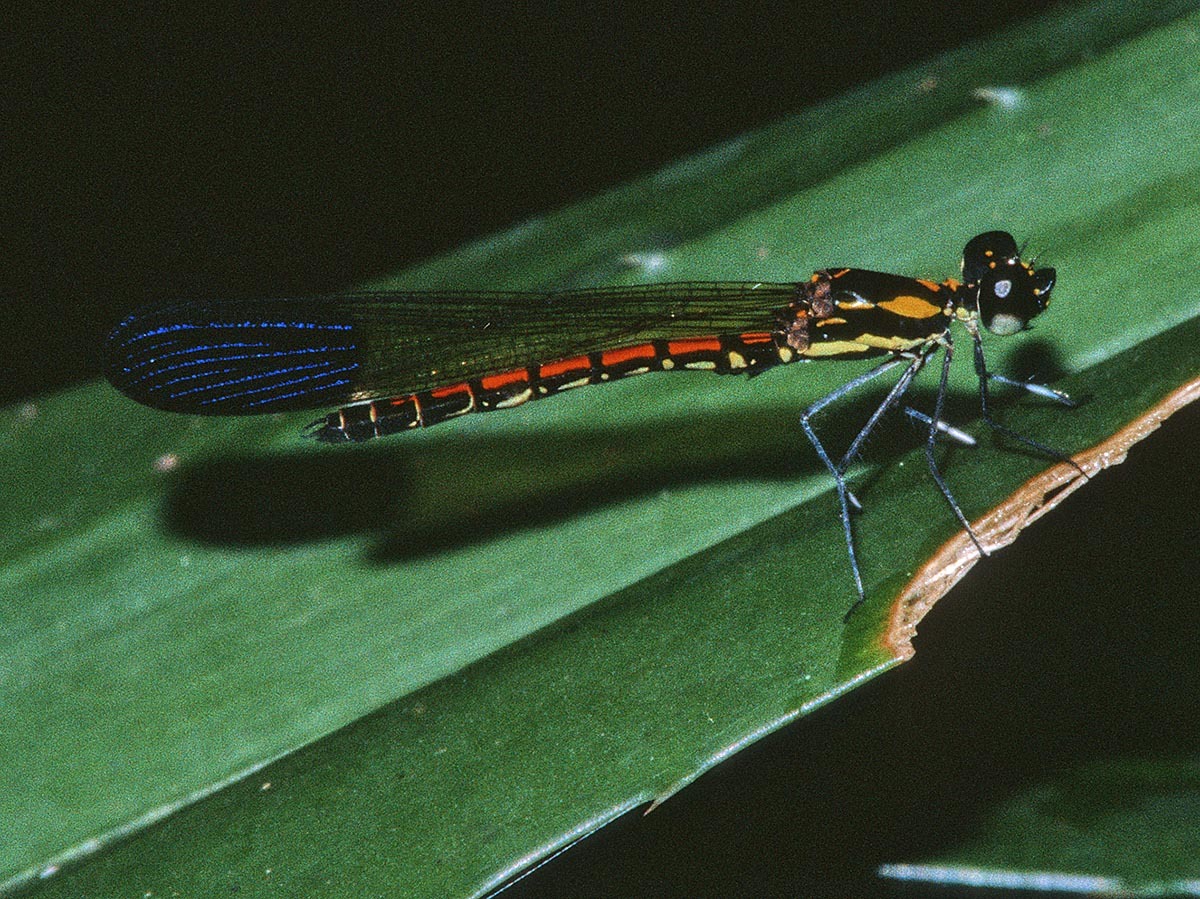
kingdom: Animalia
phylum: Arthropoda
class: Insecta
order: Odonata
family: Chlorocyphidae
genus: Sundacypha
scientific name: Sundacypha petiolata
